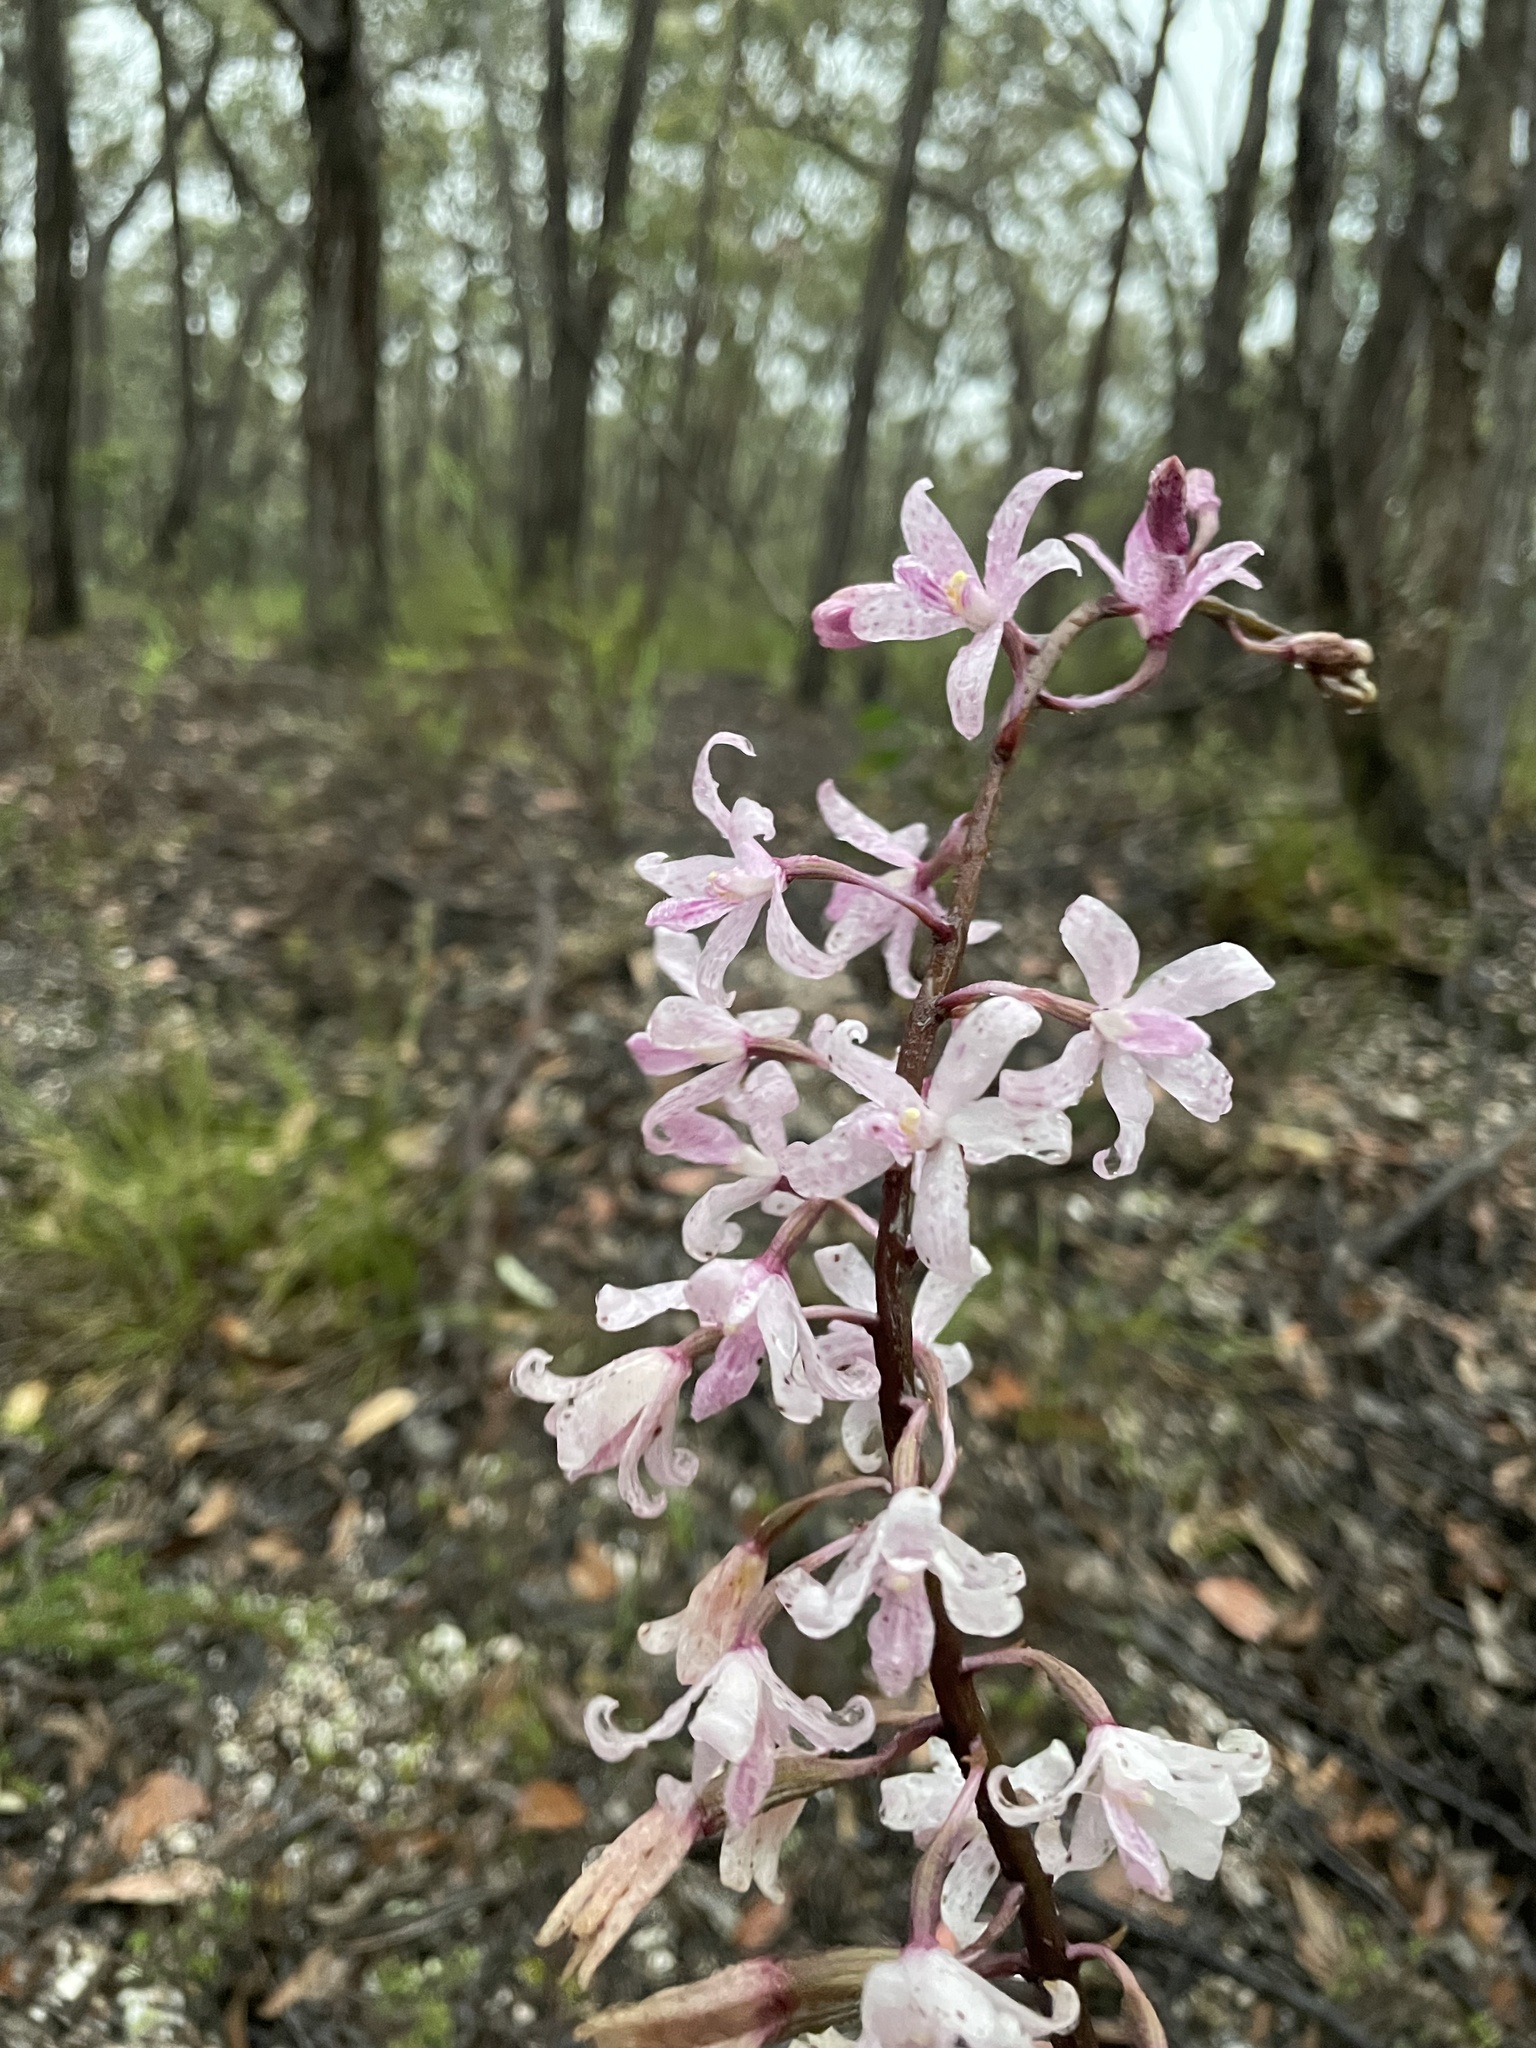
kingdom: Plantae
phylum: Tracheophyta
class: Liliopsida
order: Asparagales
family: Orchidaceae
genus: Dipodium
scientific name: Dipodium roseum
